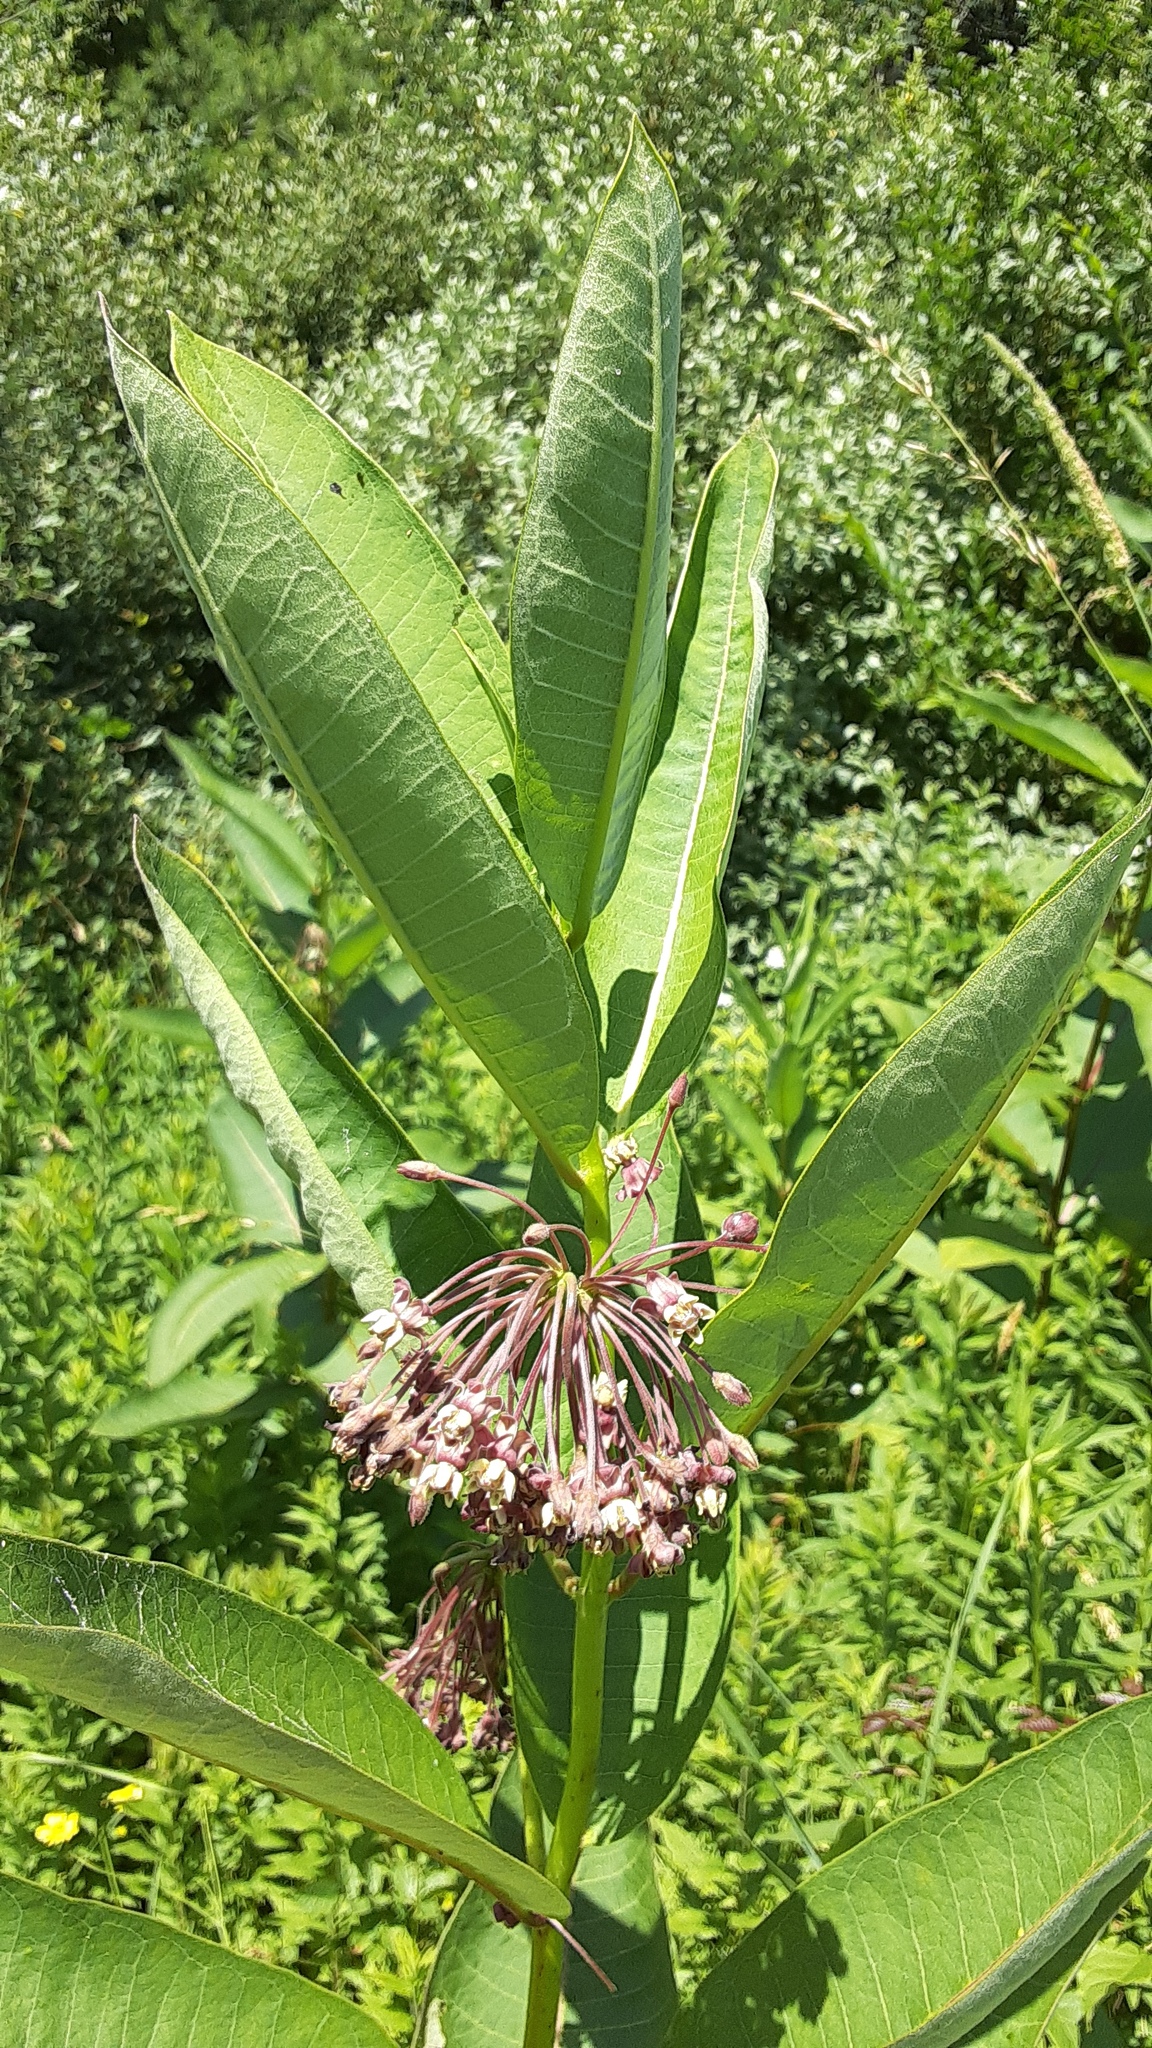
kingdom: Plantae
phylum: Tracheophyta
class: Magnoliopsida
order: Gentianales
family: Apocynaceae
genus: Asclepias
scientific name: Asclepias syriaca
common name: Common milkweed
